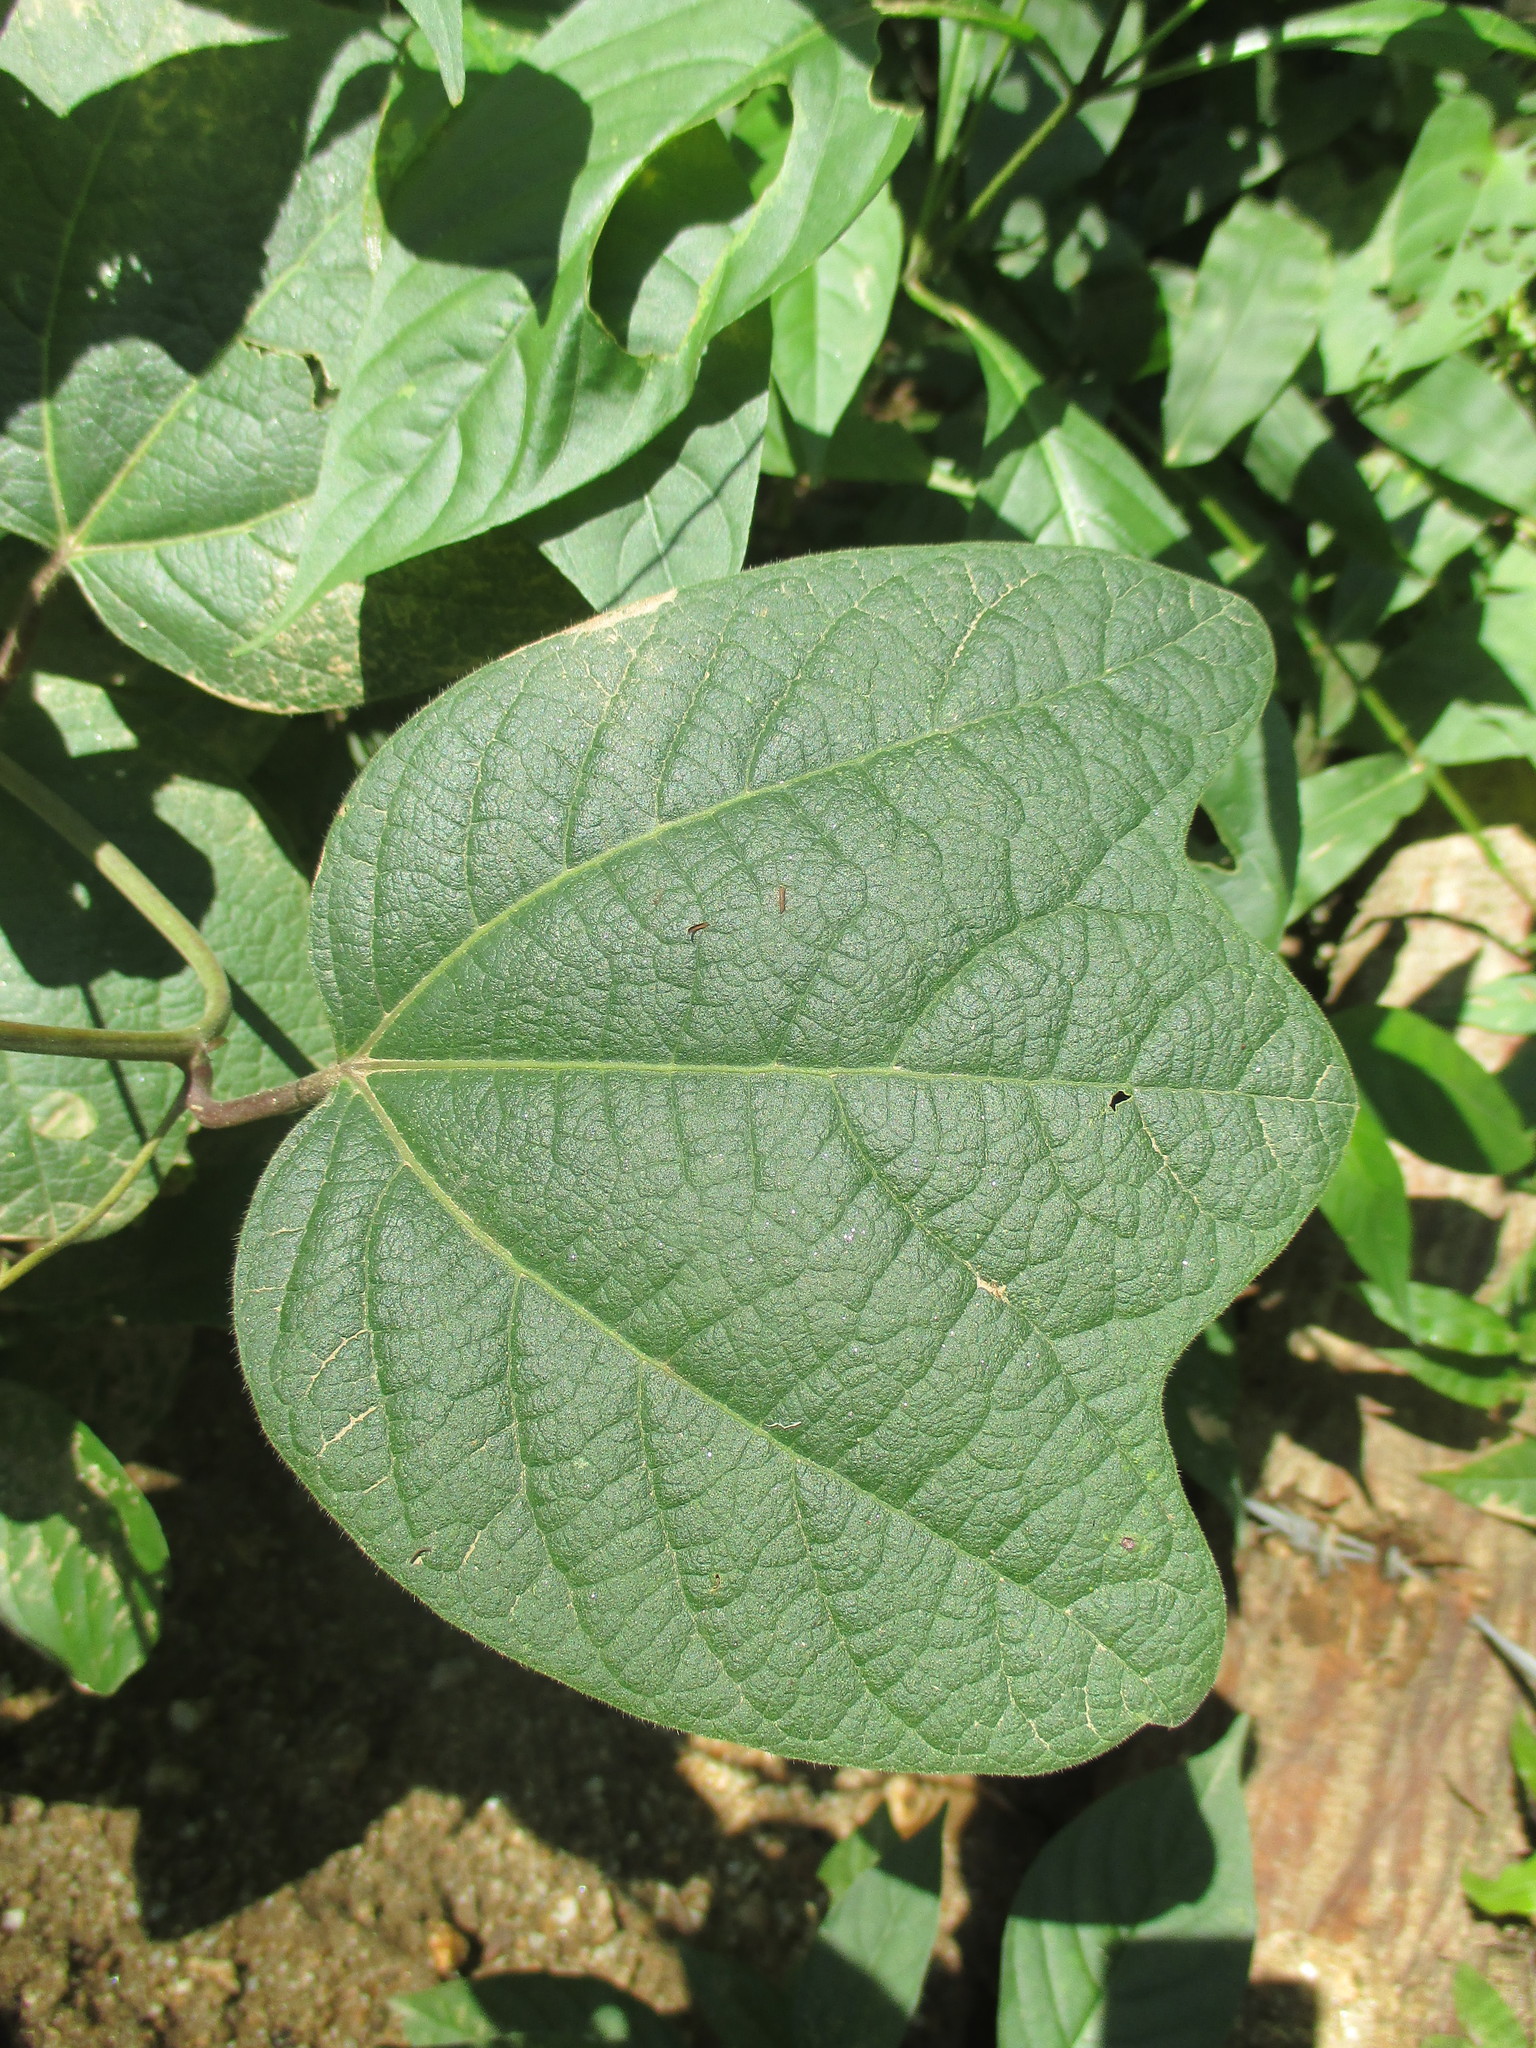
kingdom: Plantae
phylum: Tracheophyta
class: Magnoliopsida
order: Malpighiales
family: Passifloraceae
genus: Passiflora
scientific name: Passiflora porphyretica
